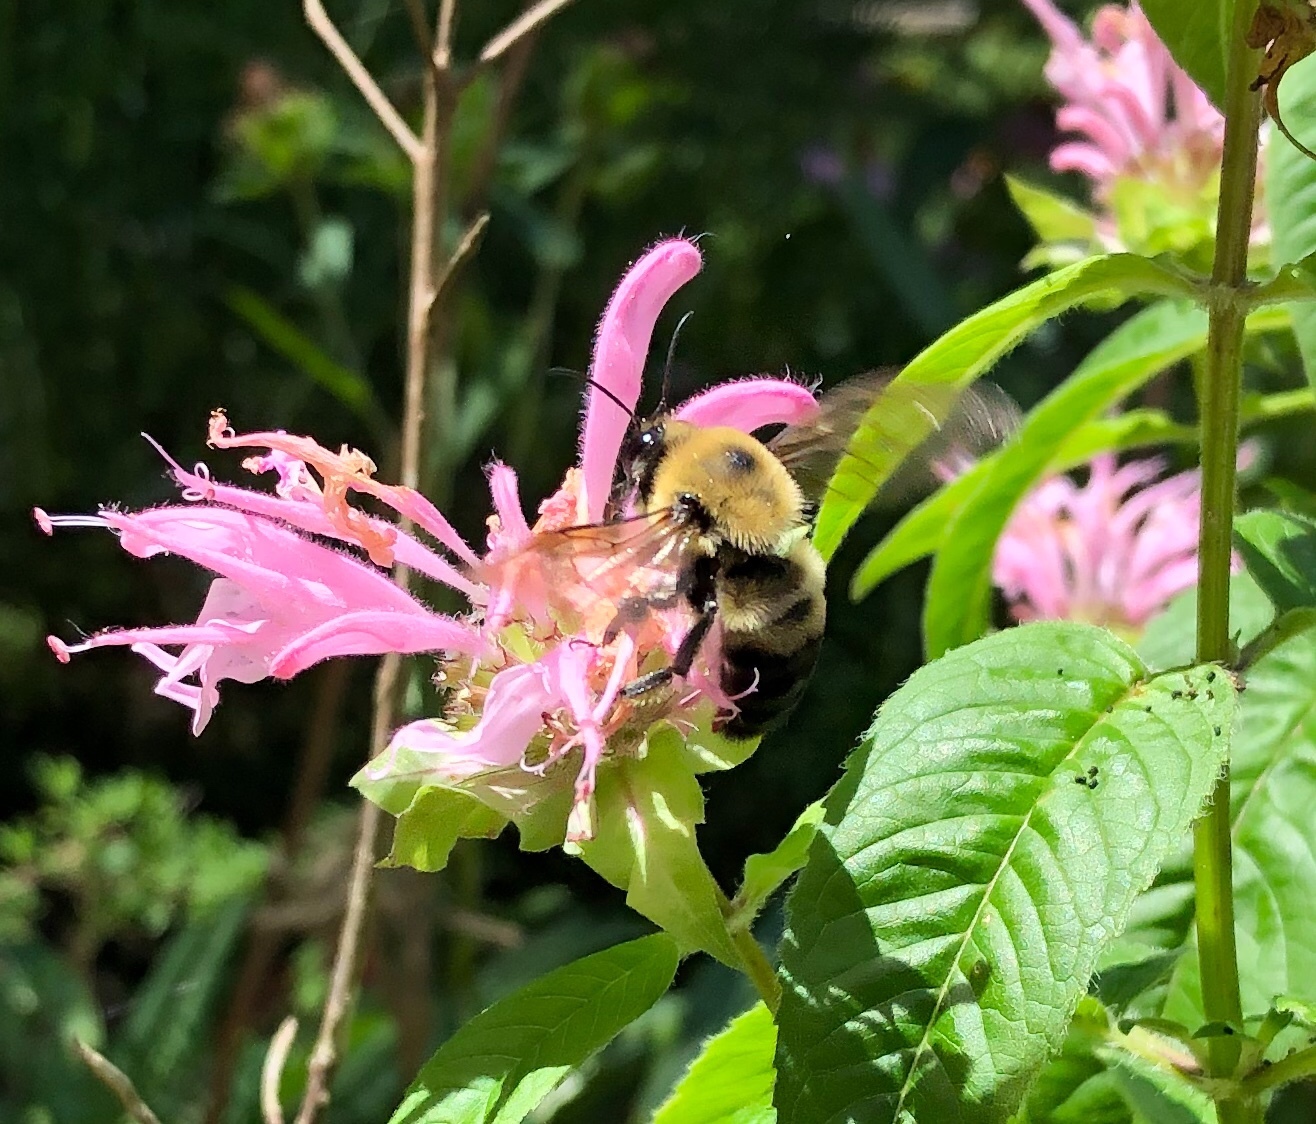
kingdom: Animalia
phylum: Arthropoda
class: Insecta
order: Hymenoptera
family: Apidae
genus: Bombus
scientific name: Bombus griseocollis
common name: Brown-belted bumble bee
